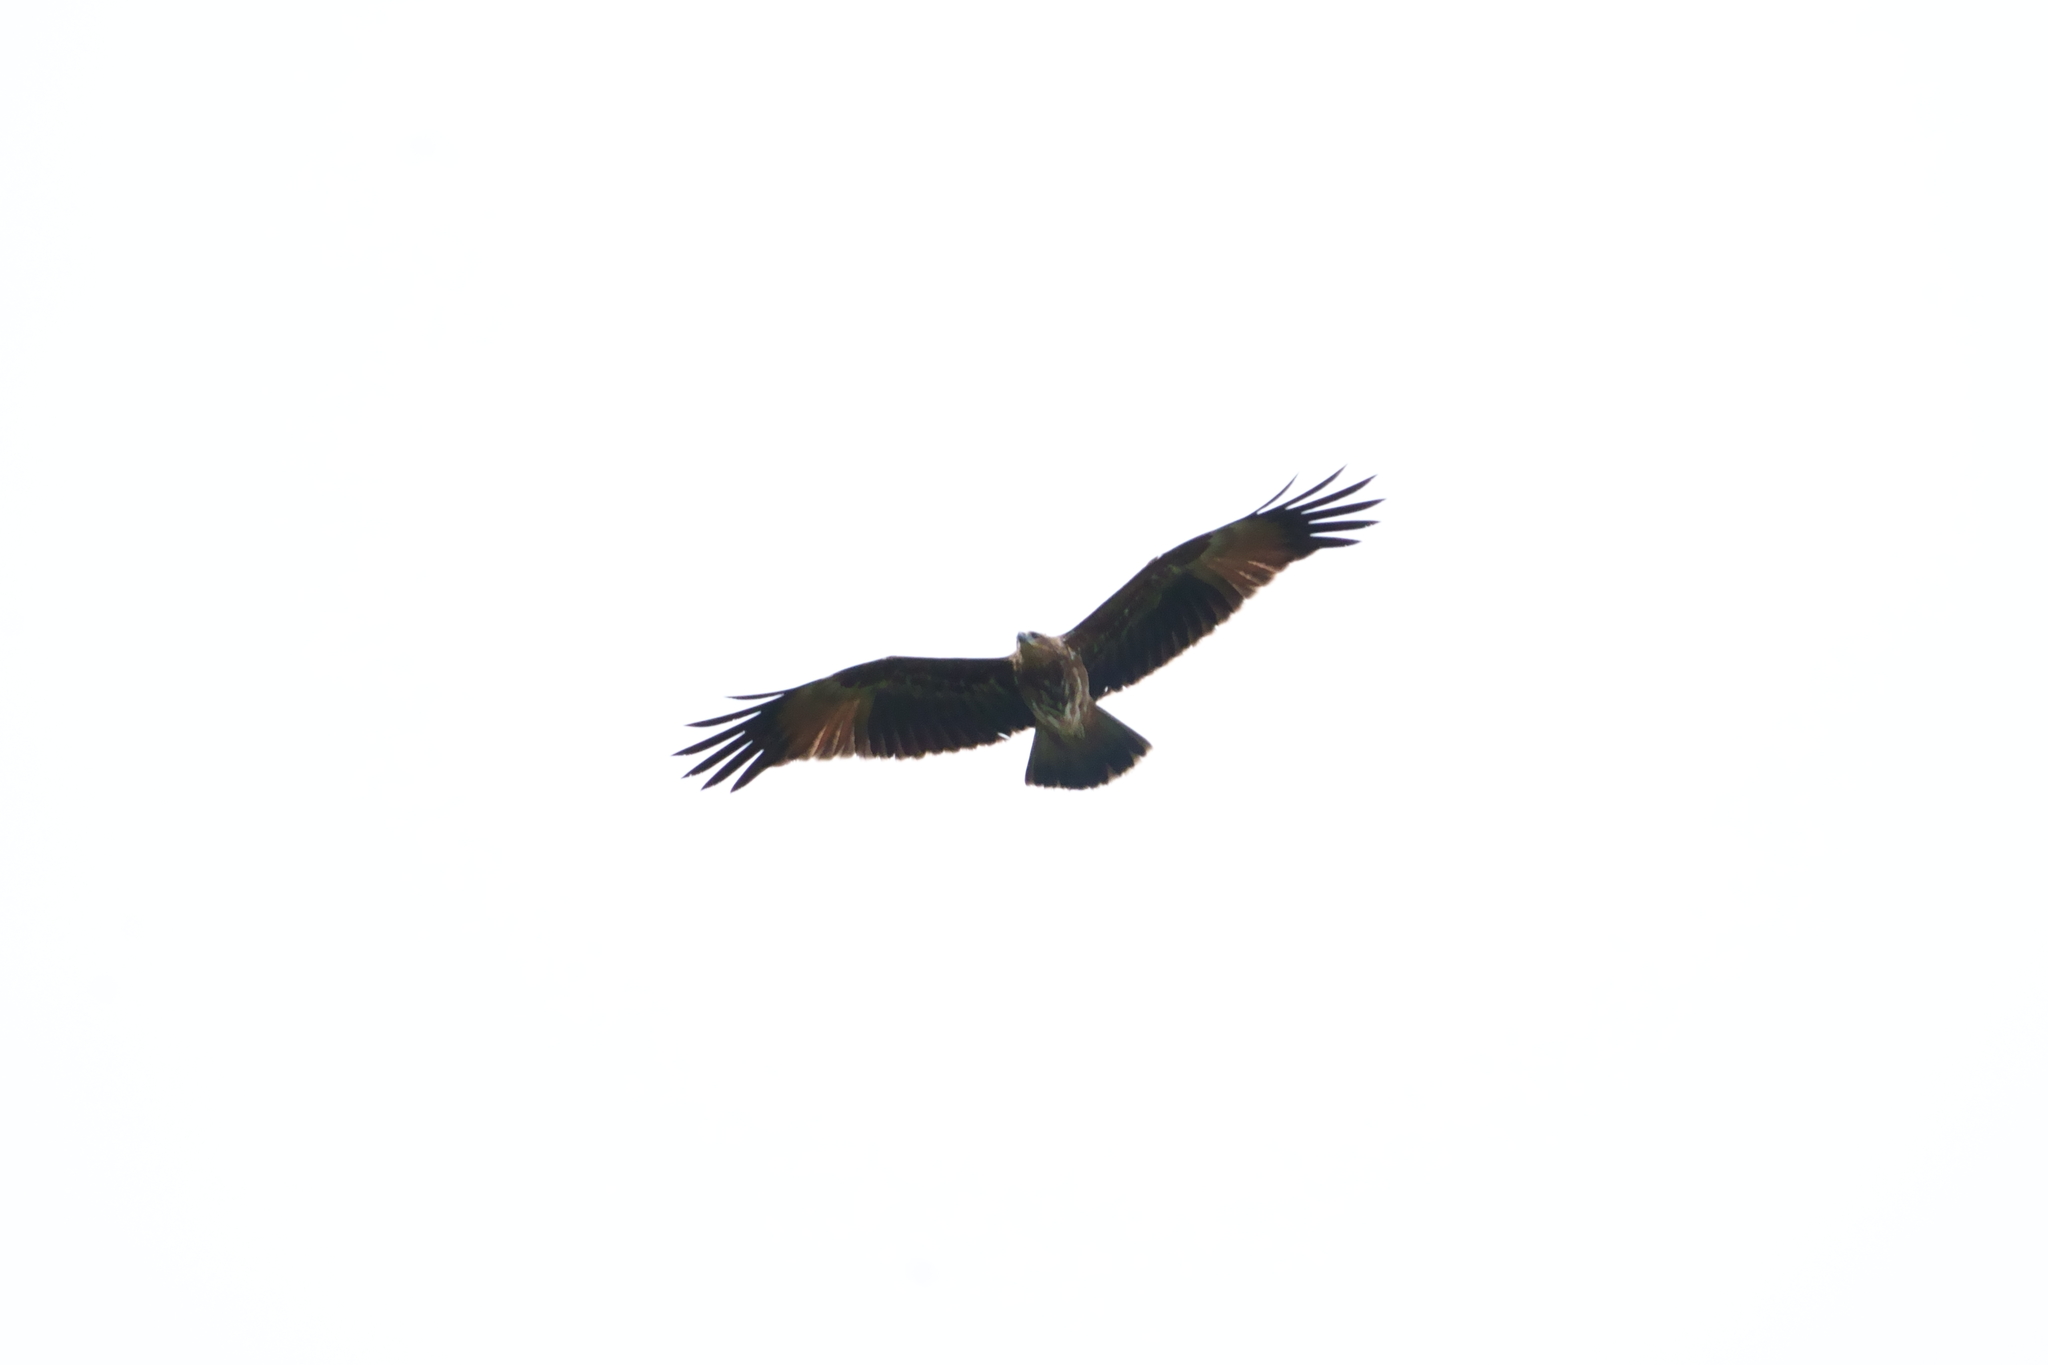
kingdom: Animalia
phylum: Chordata
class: Aves
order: Accipitriformes
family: Accipitridae
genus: Haliastur
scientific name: Haliastur indus
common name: Brahminy kite
